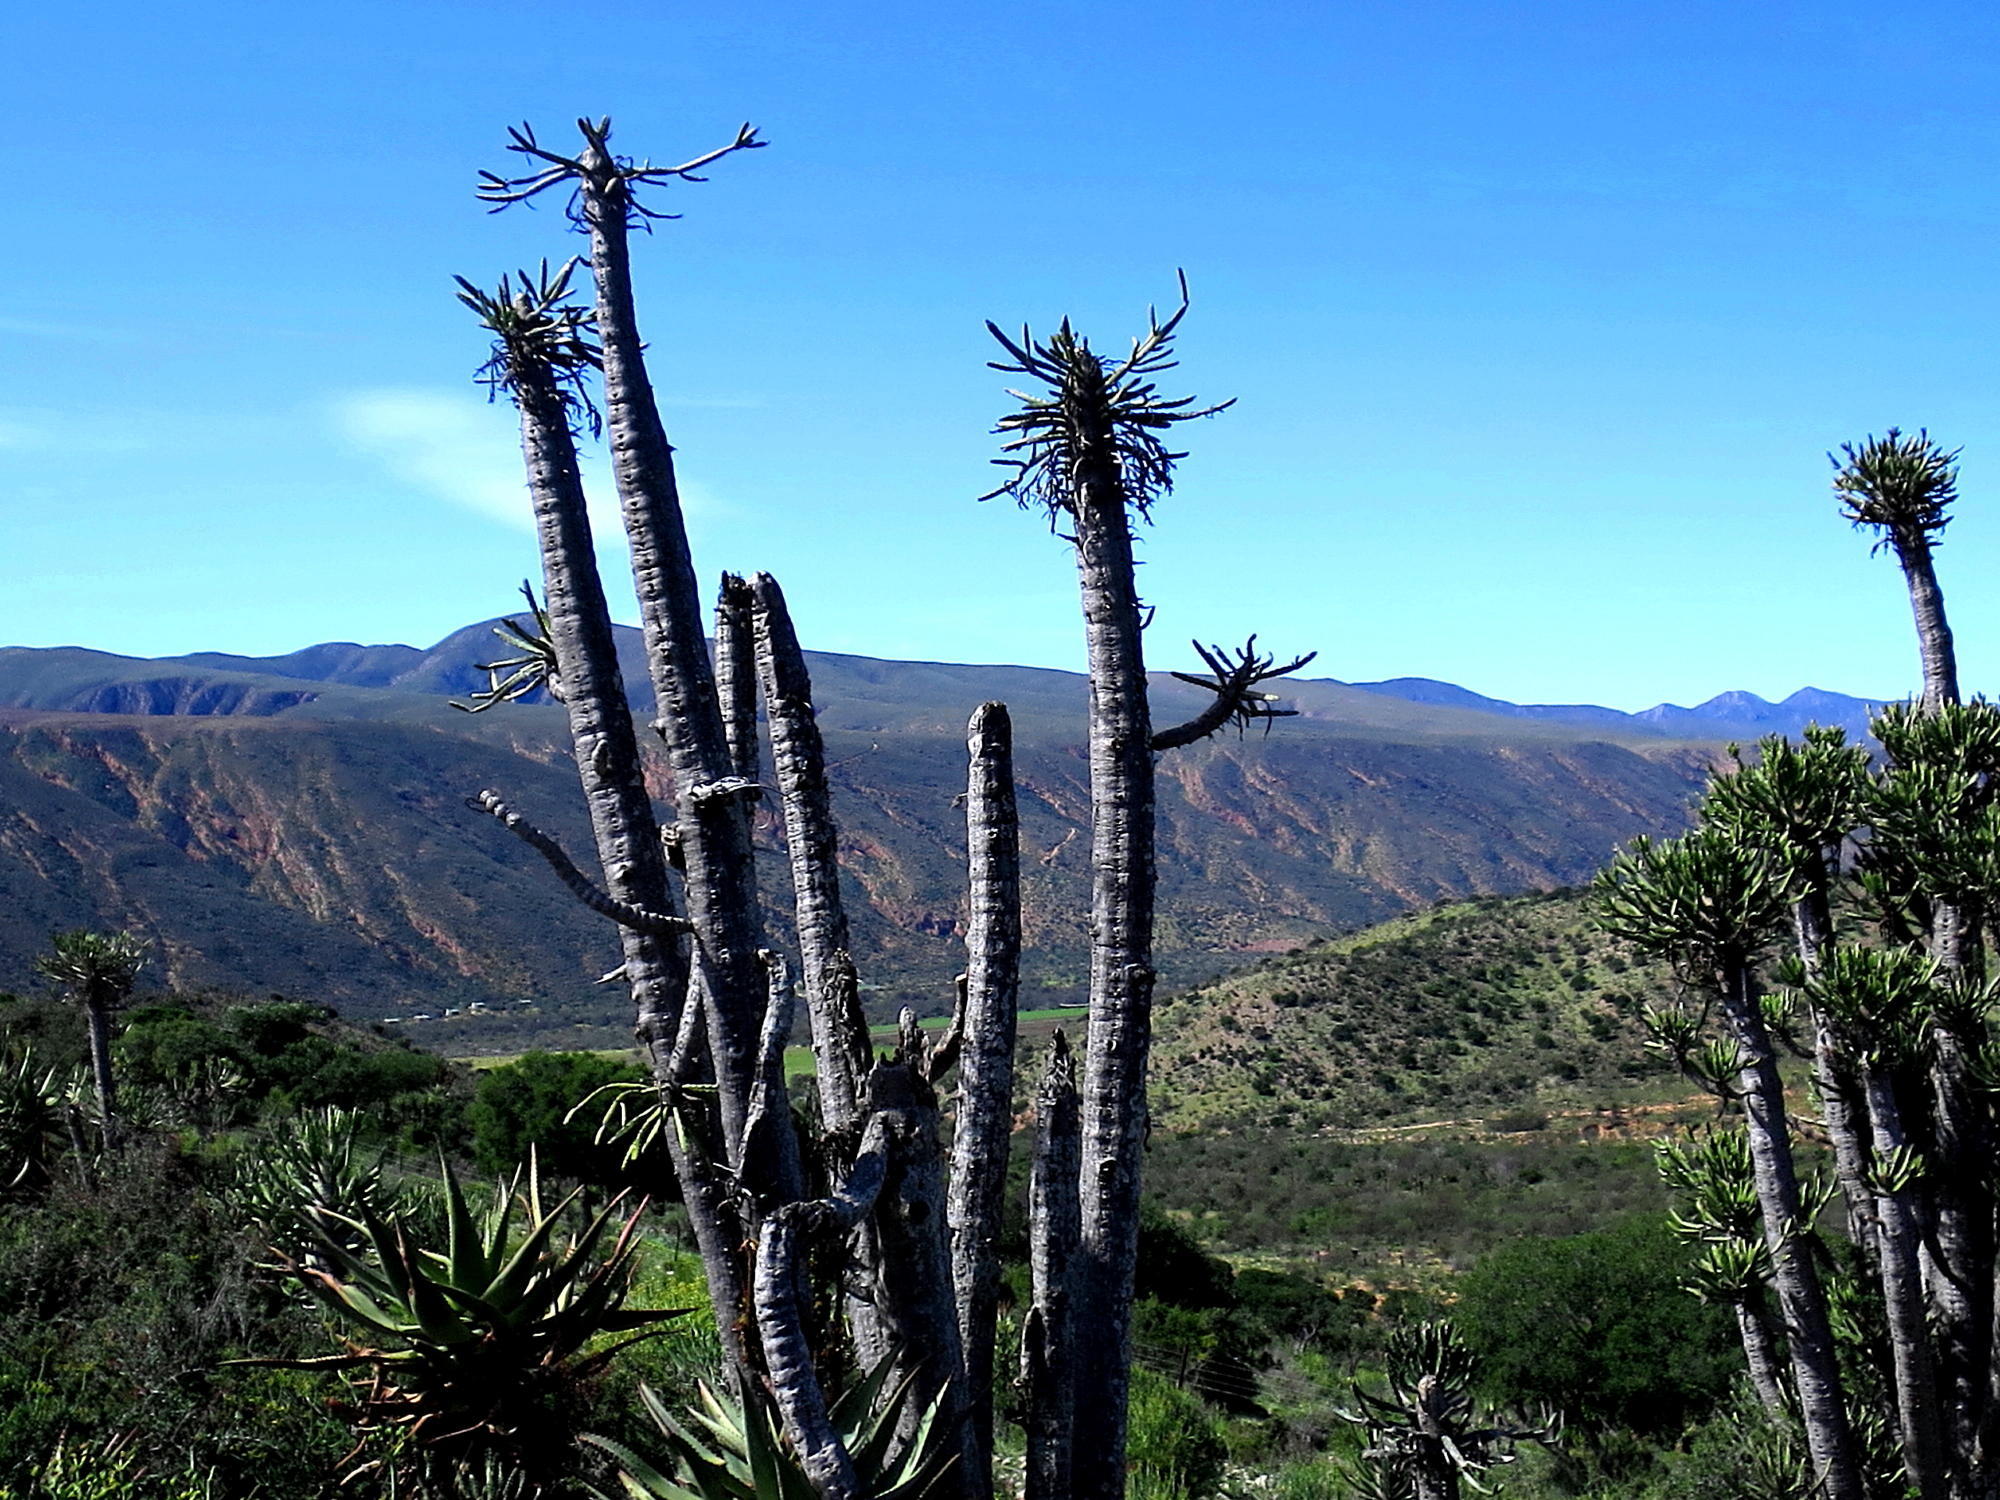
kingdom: Plantae
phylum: Tracheophyta
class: Magnoliopsida
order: Malpighiales
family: Euphorbiaceae
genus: Euphorbia
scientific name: Euphorbia grandidens
